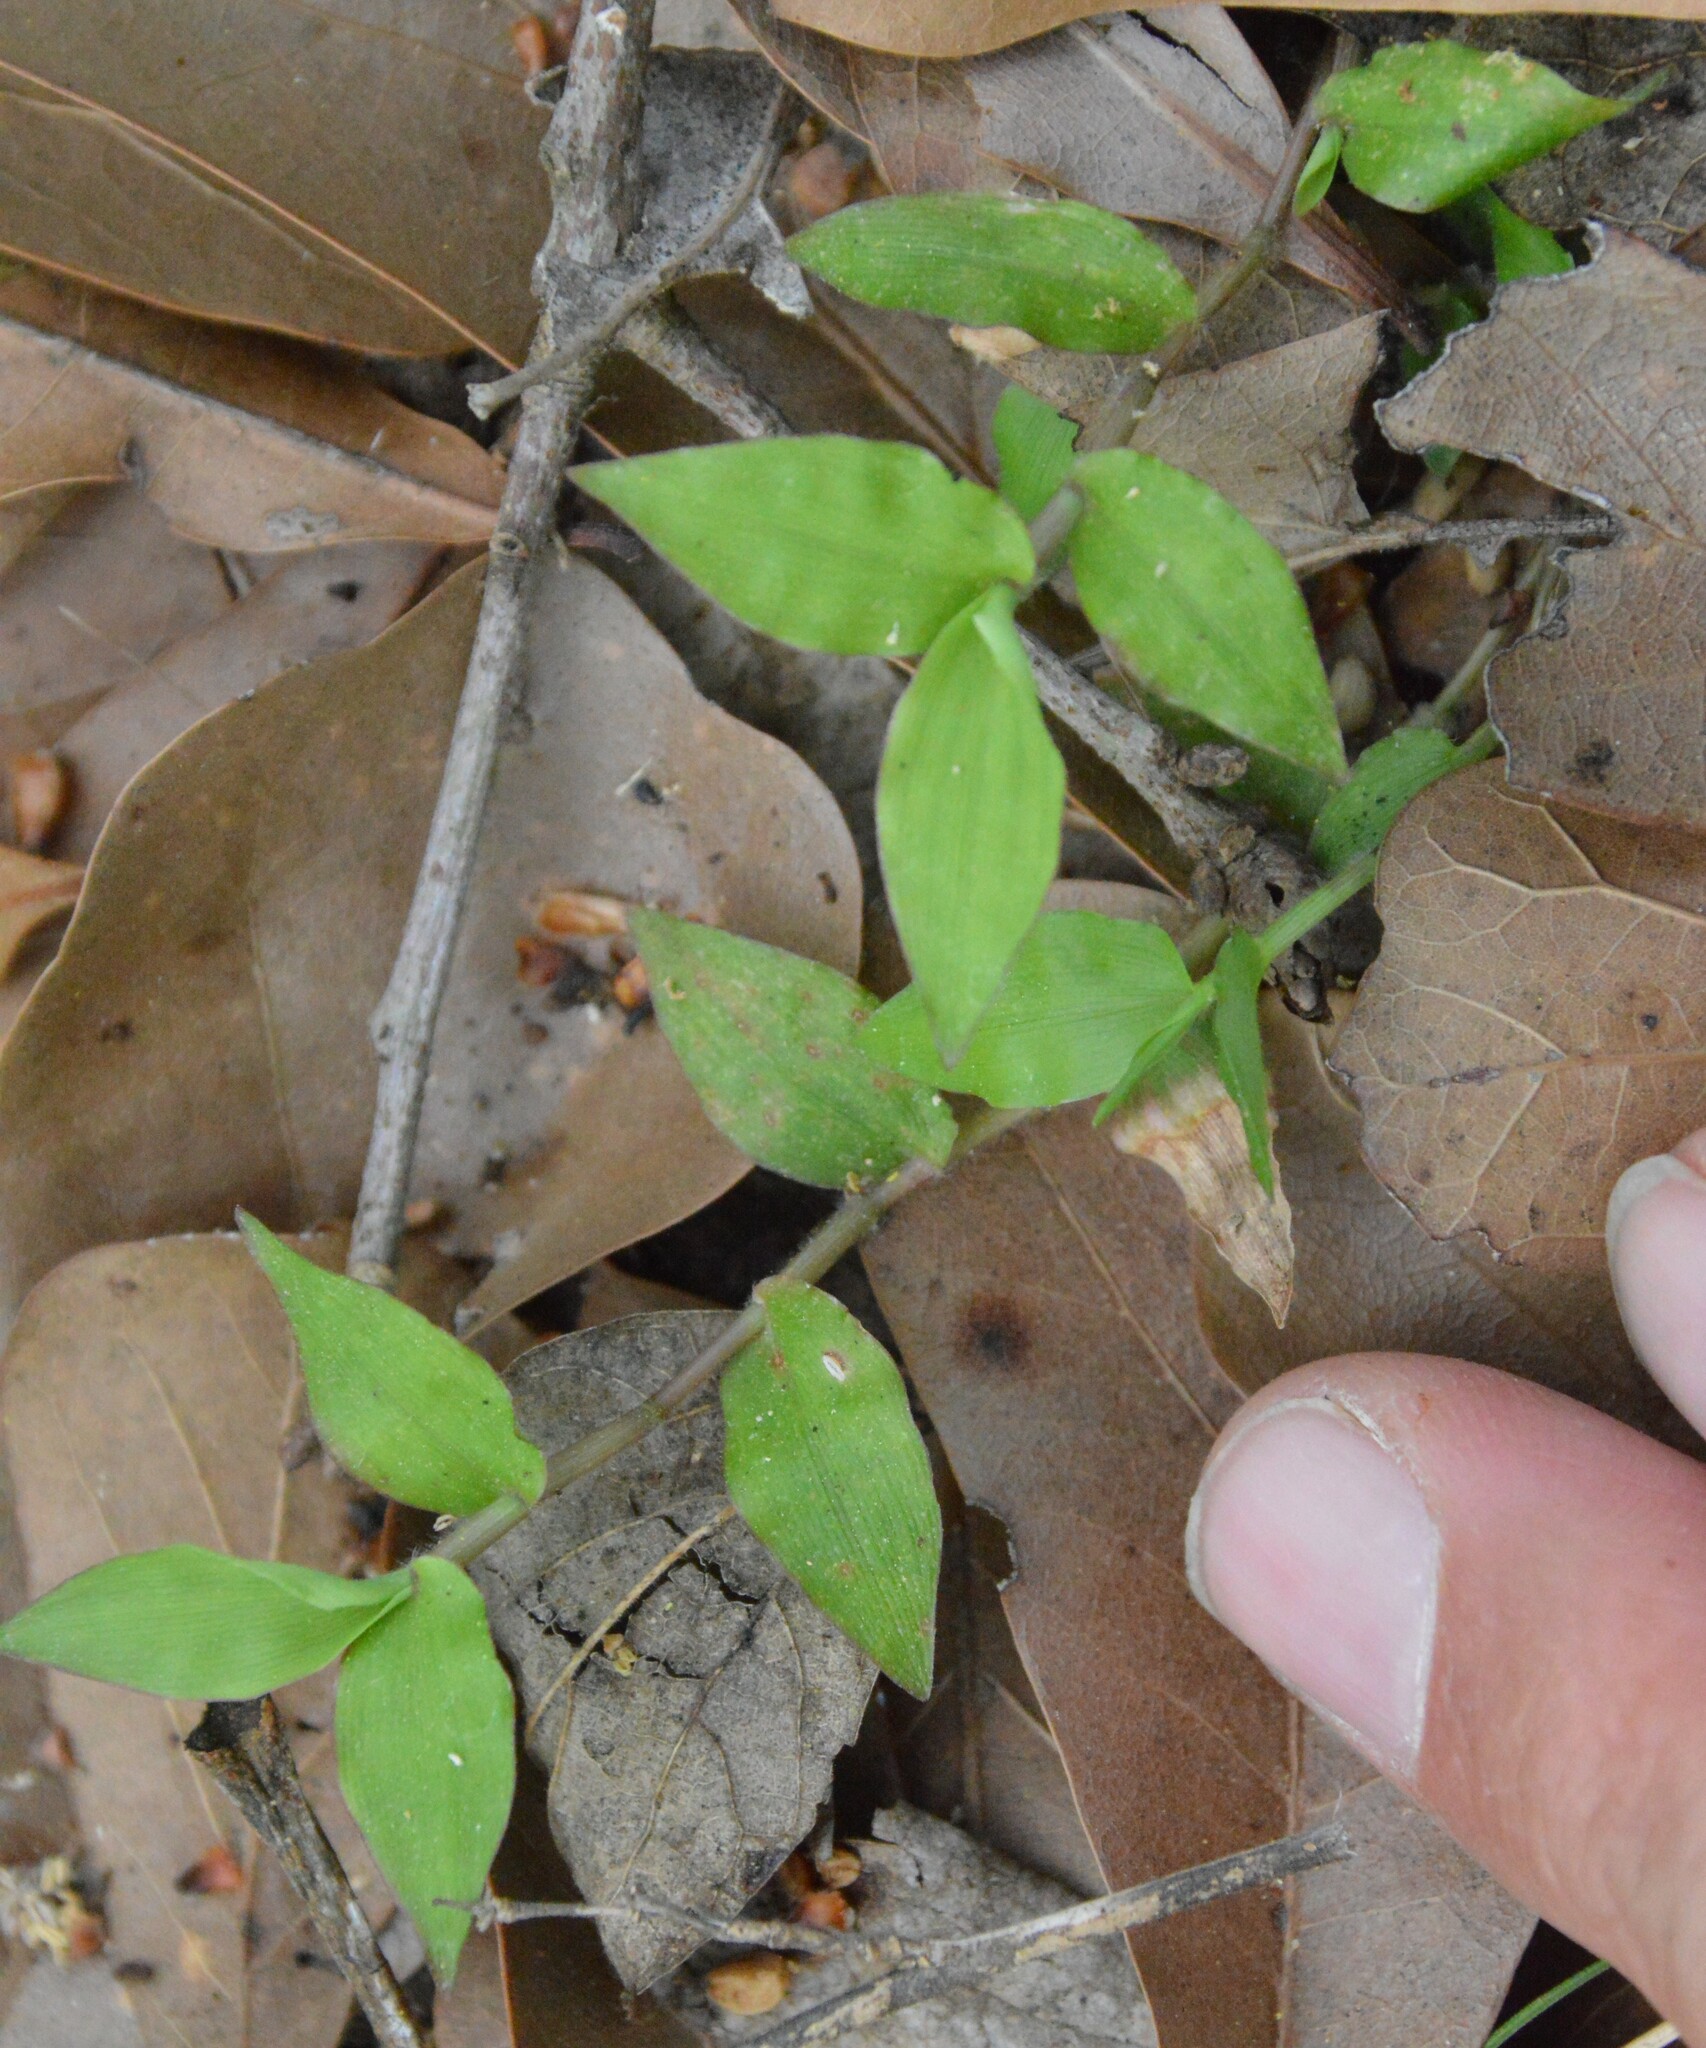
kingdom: Plantae
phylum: Tracheophyta
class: Liliopsida
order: Poales
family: Poaceae
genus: Oplismenus
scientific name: Oplismenus hirtellus
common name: Basketgrass
